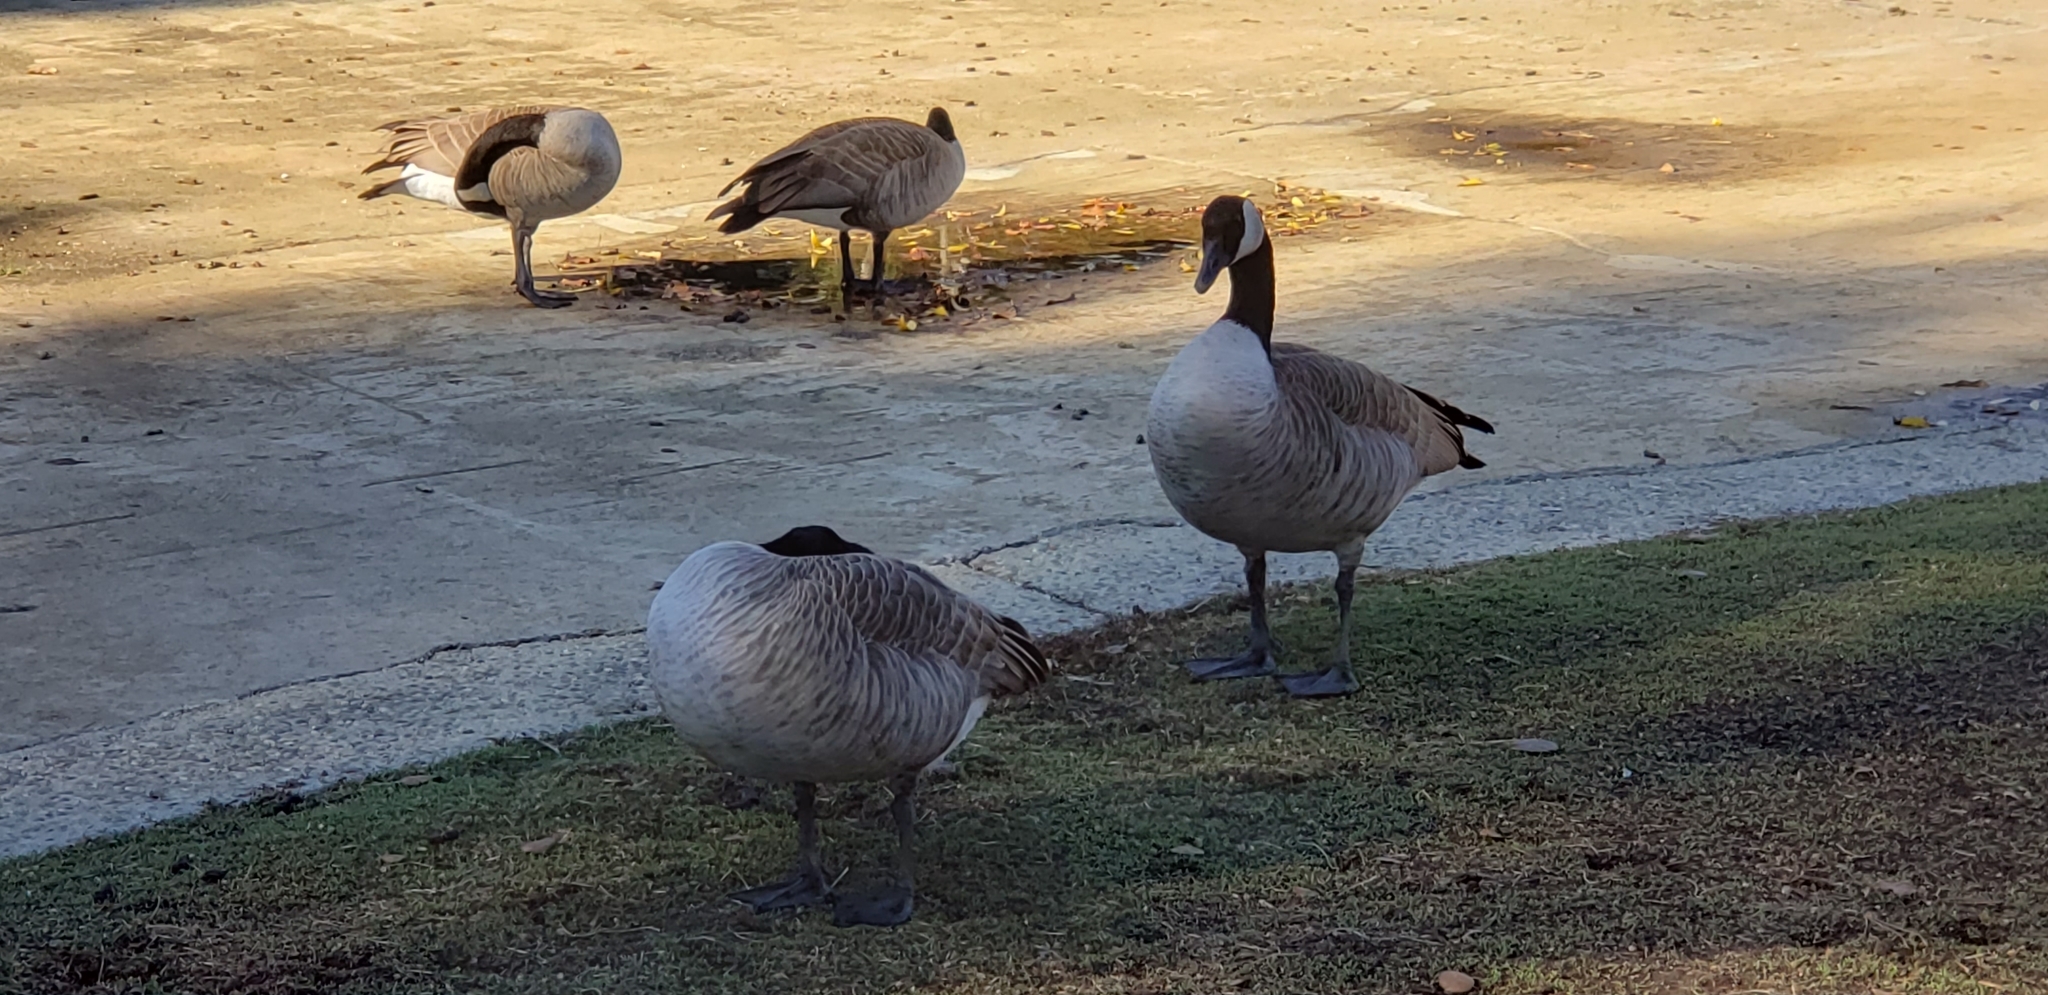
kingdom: Animalia
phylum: Chordata
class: Aves
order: Anseriformes
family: Anatidae
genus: Branta
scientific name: Branta canadensis
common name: Canada goose
